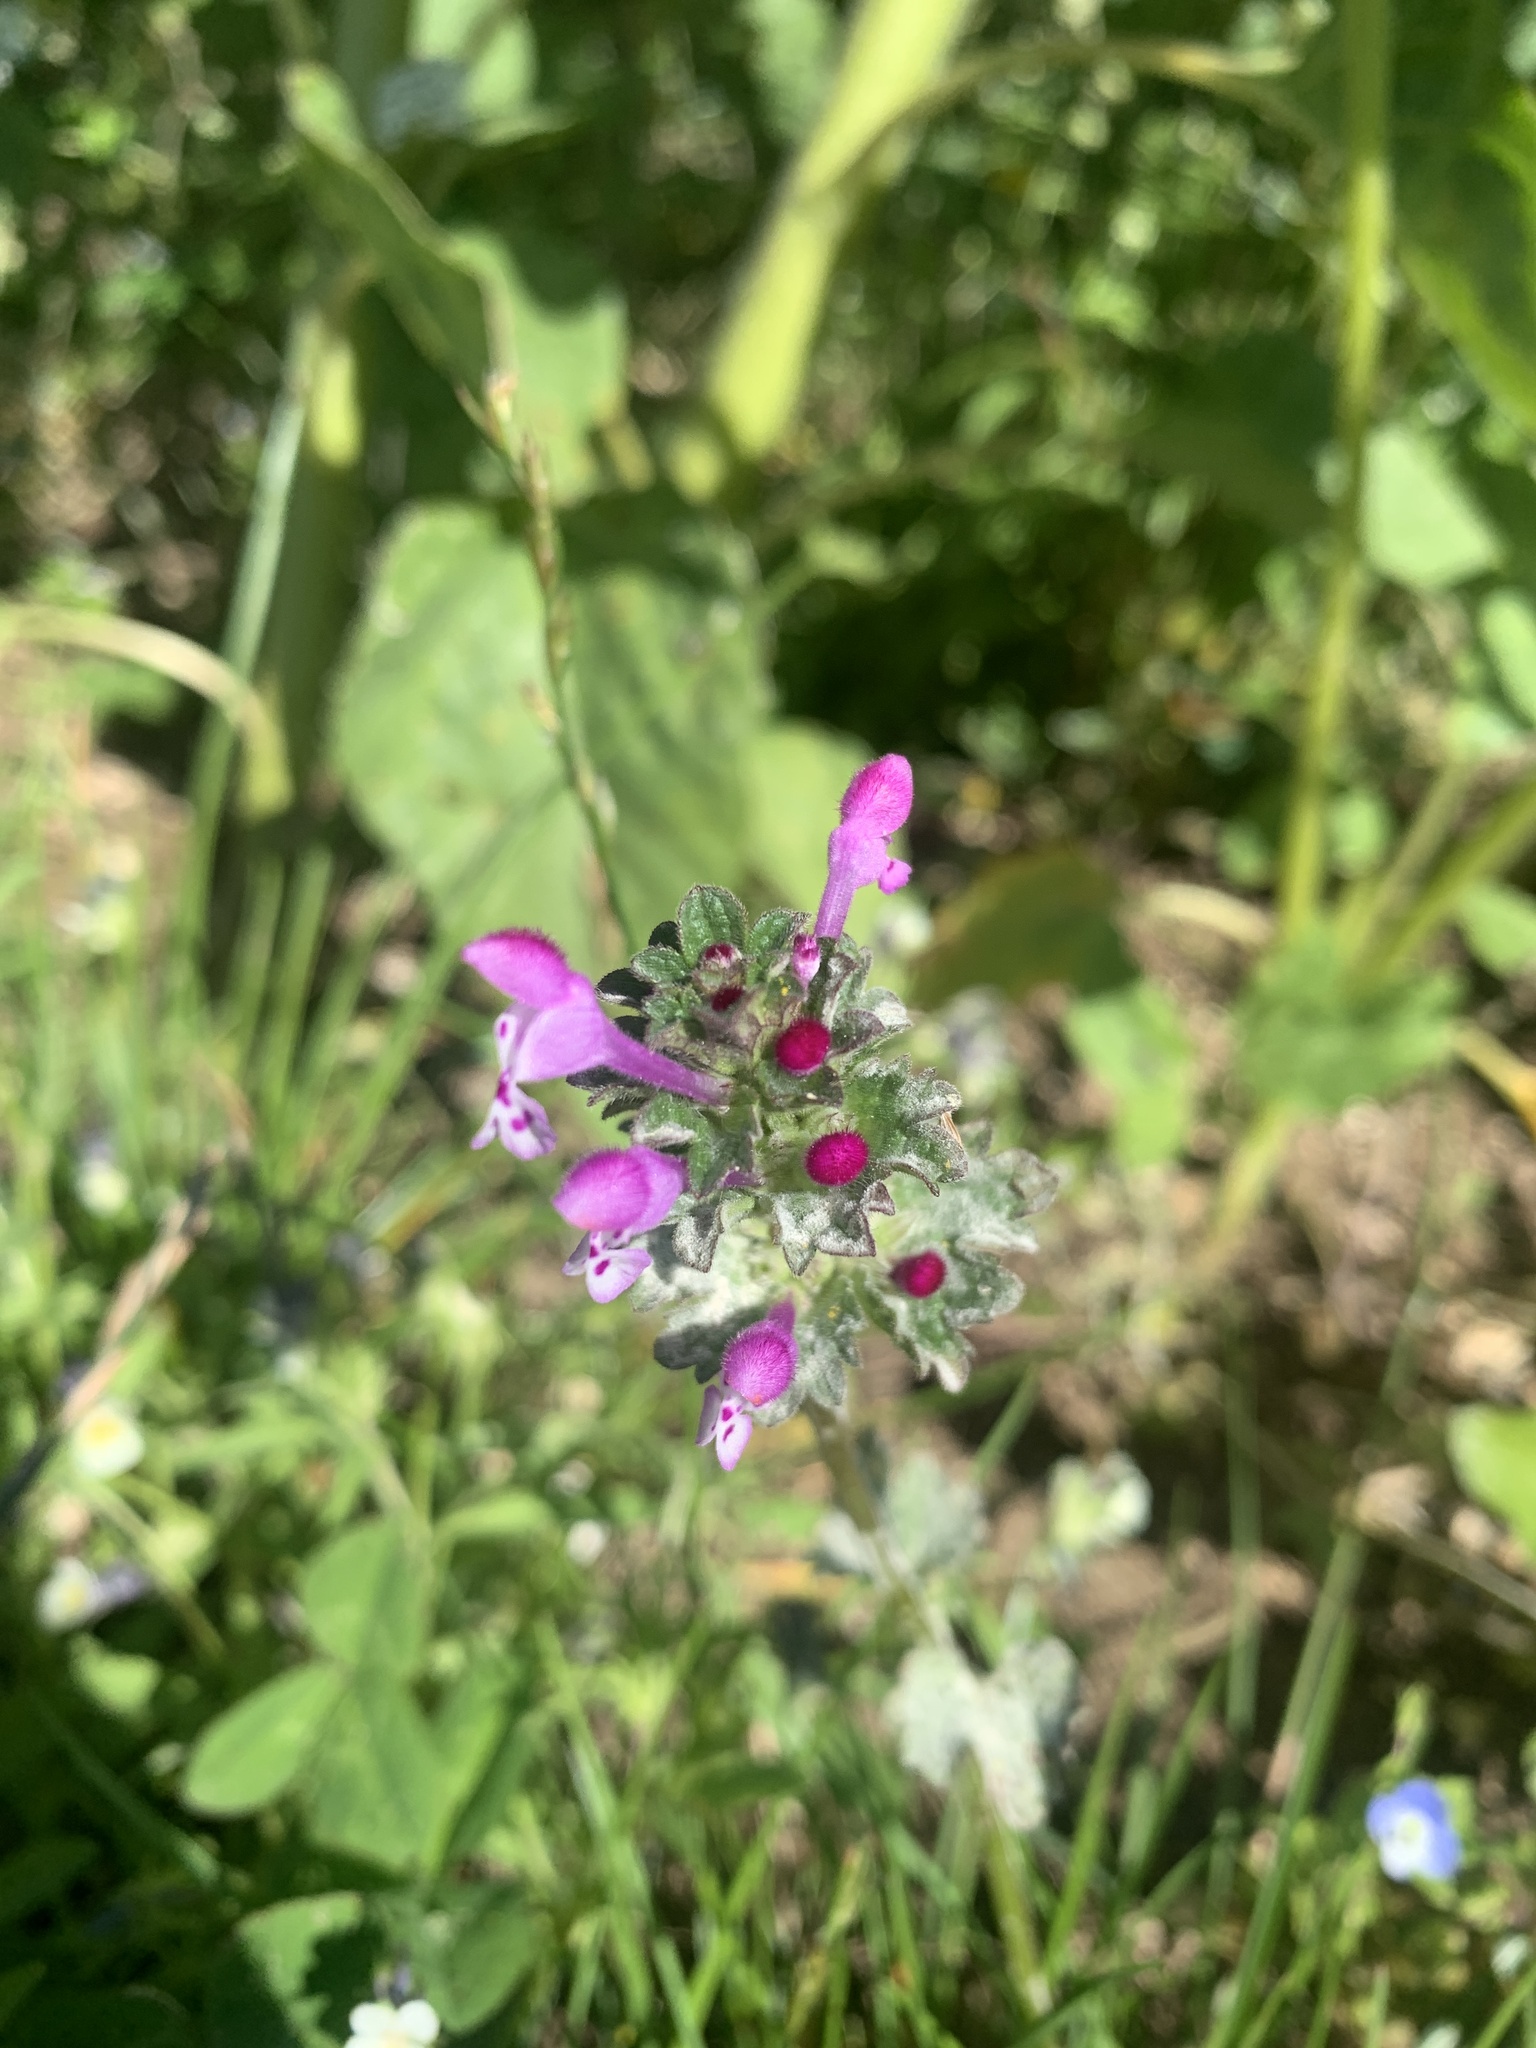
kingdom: Plantae
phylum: Tracheophyta
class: Magnoliopsida
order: Lamiales
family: Lamiaceae
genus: Lamium
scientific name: Lamium amplexicaule
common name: Henbit dead-nettle
